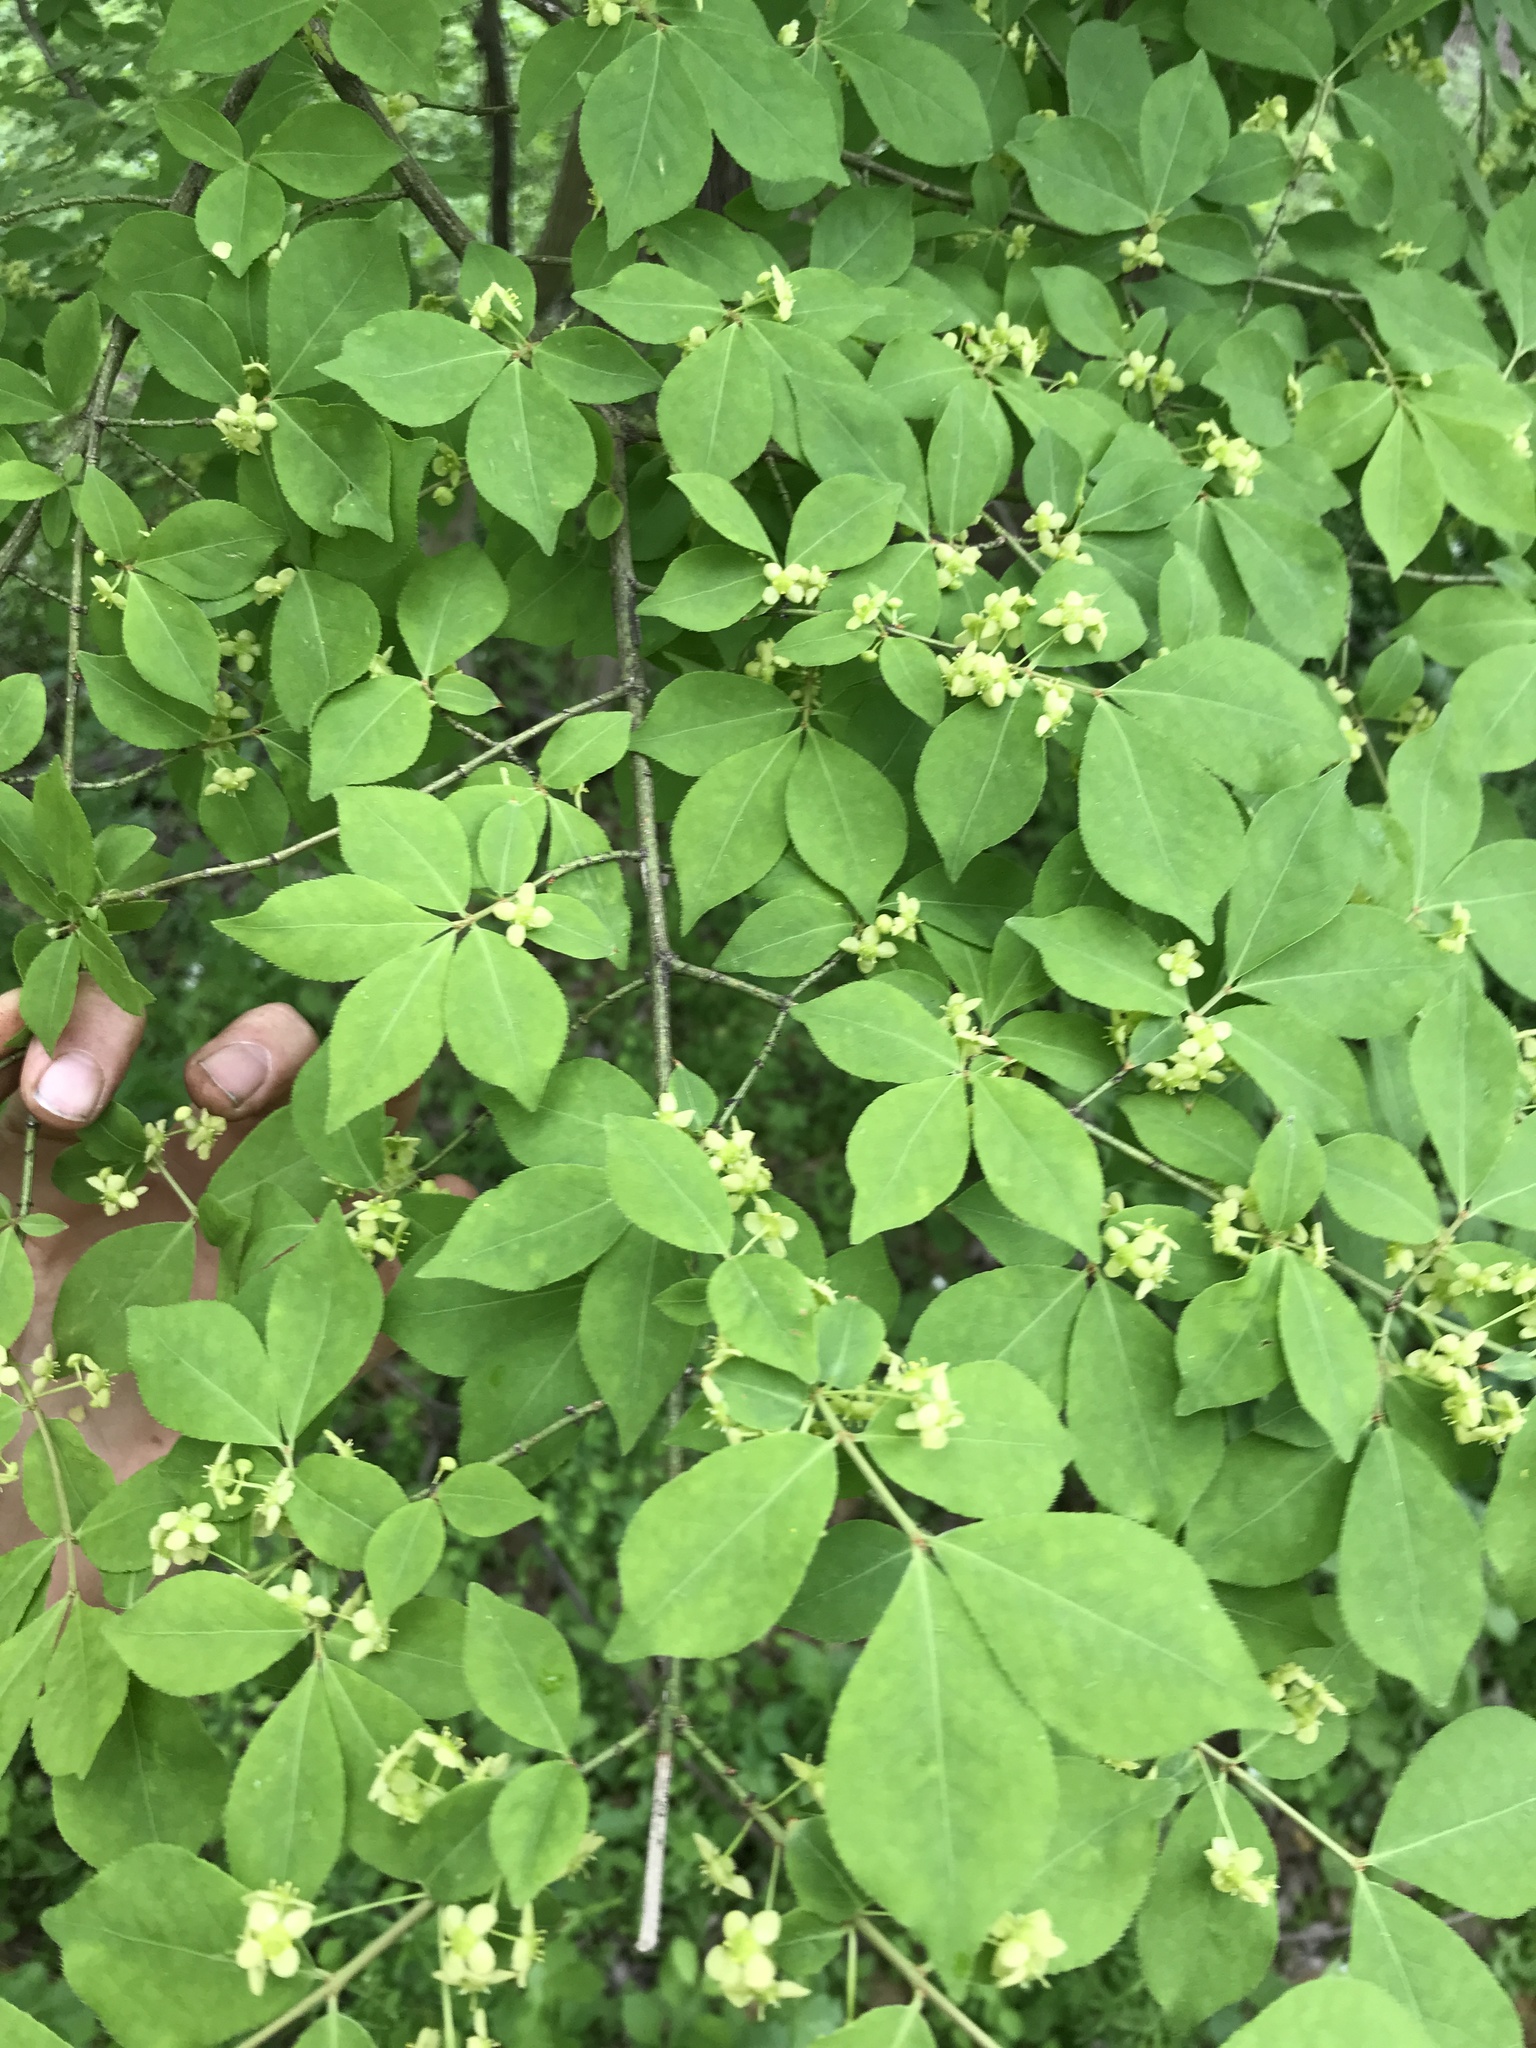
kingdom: Plantae
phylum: Tracheophyta
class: Magnoliopsida
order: Celastrales
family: Celastraceae
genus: Euonymus
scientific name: Euonymus alatus
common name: Winged euonymus
